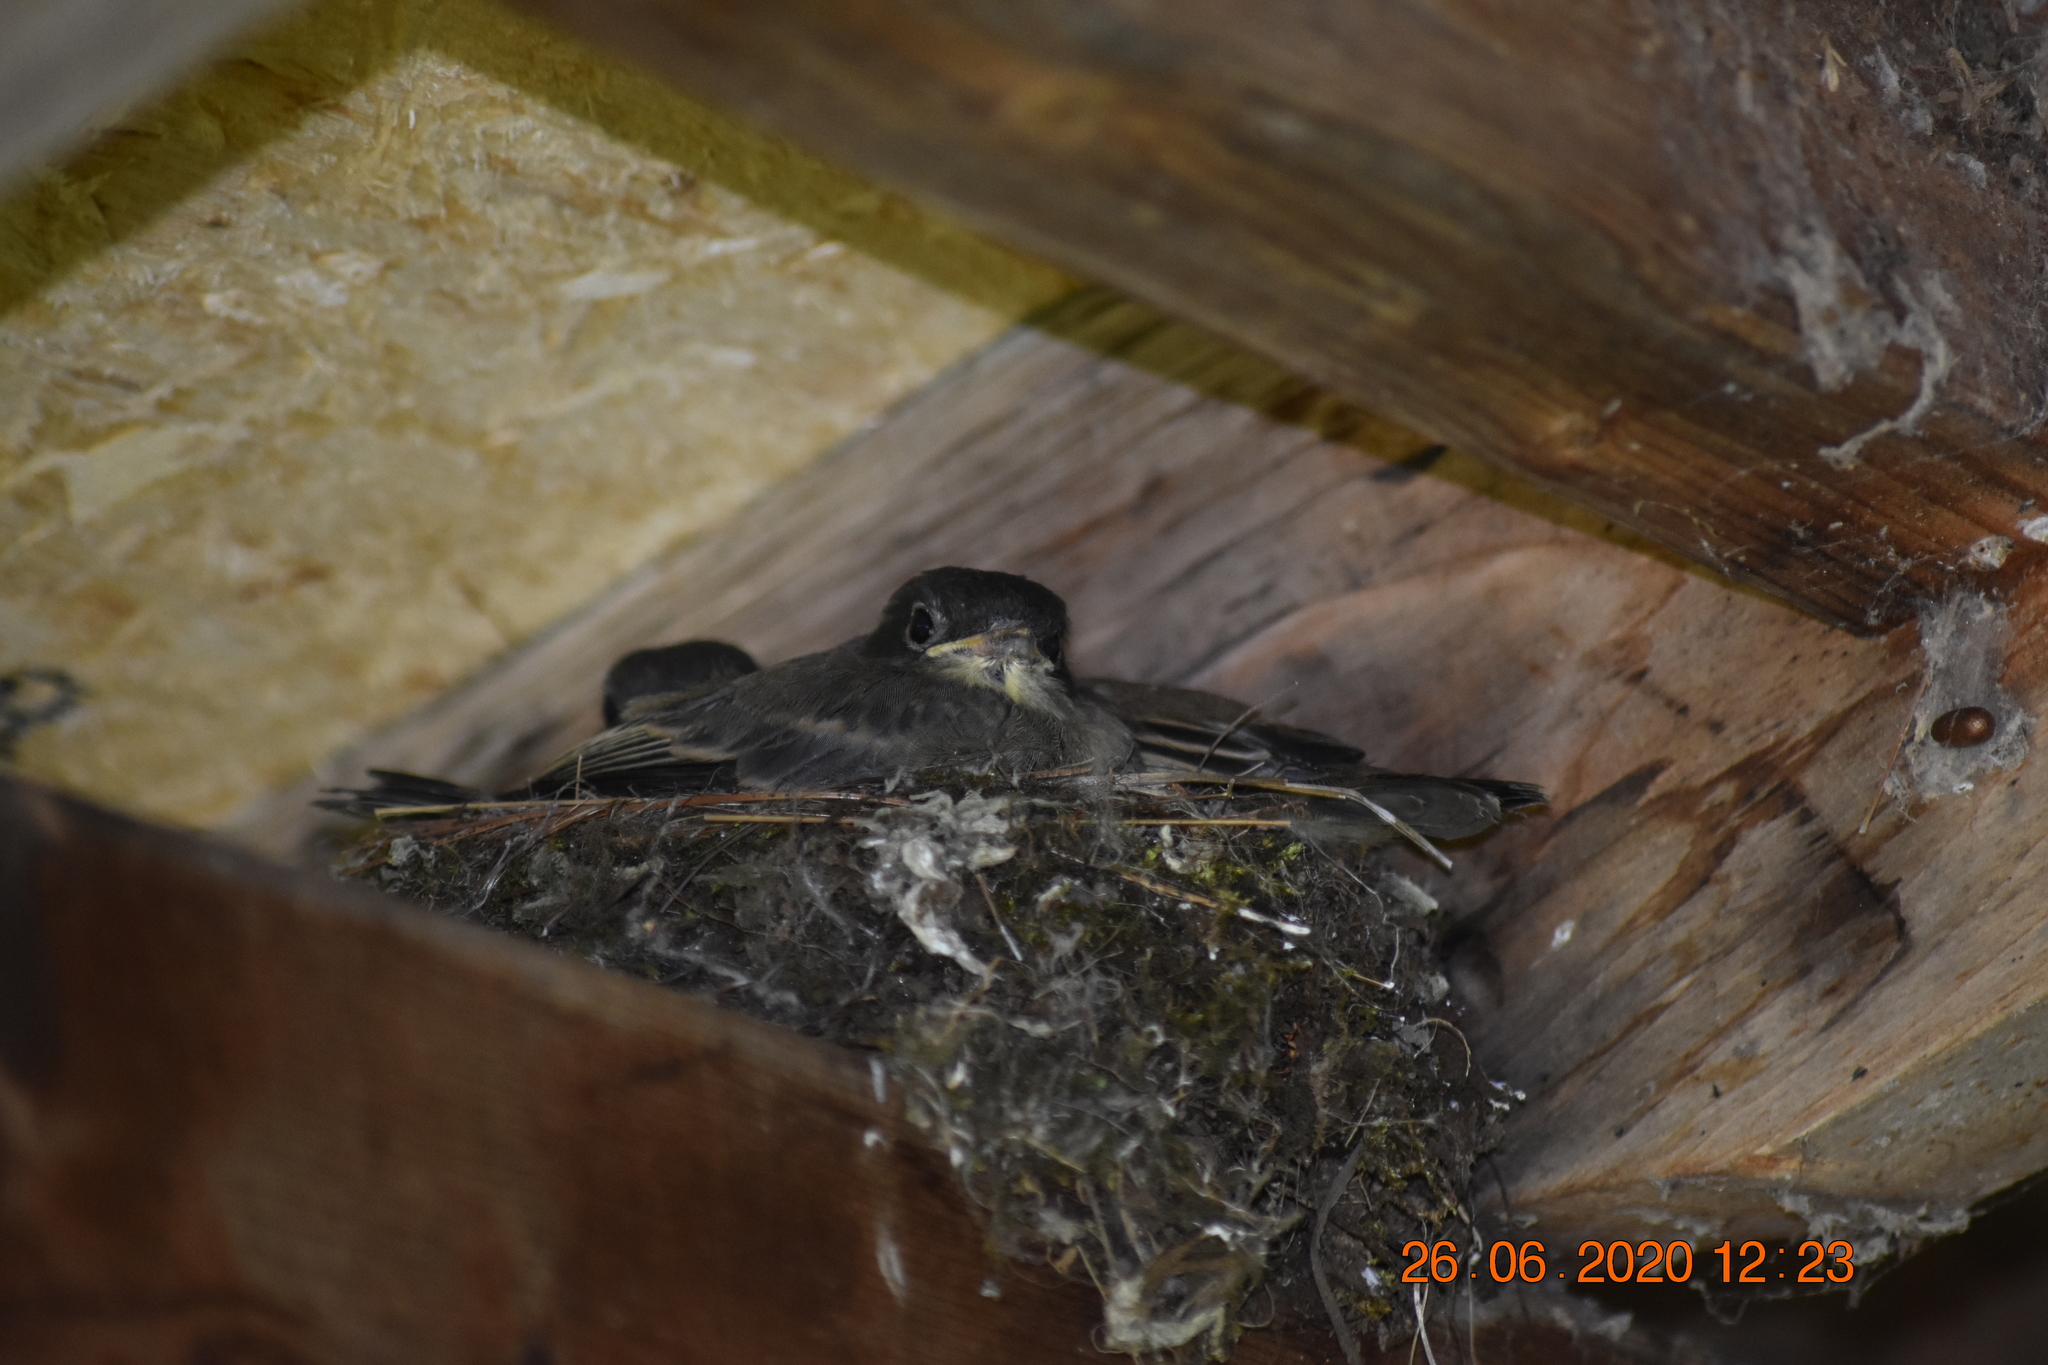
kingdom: Animalia
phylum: Chordata
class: Aves
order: Passeriformes
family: Tyrannidae
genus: Sayornis
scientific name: Sayornis phoebe
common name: Eastern phoebe
